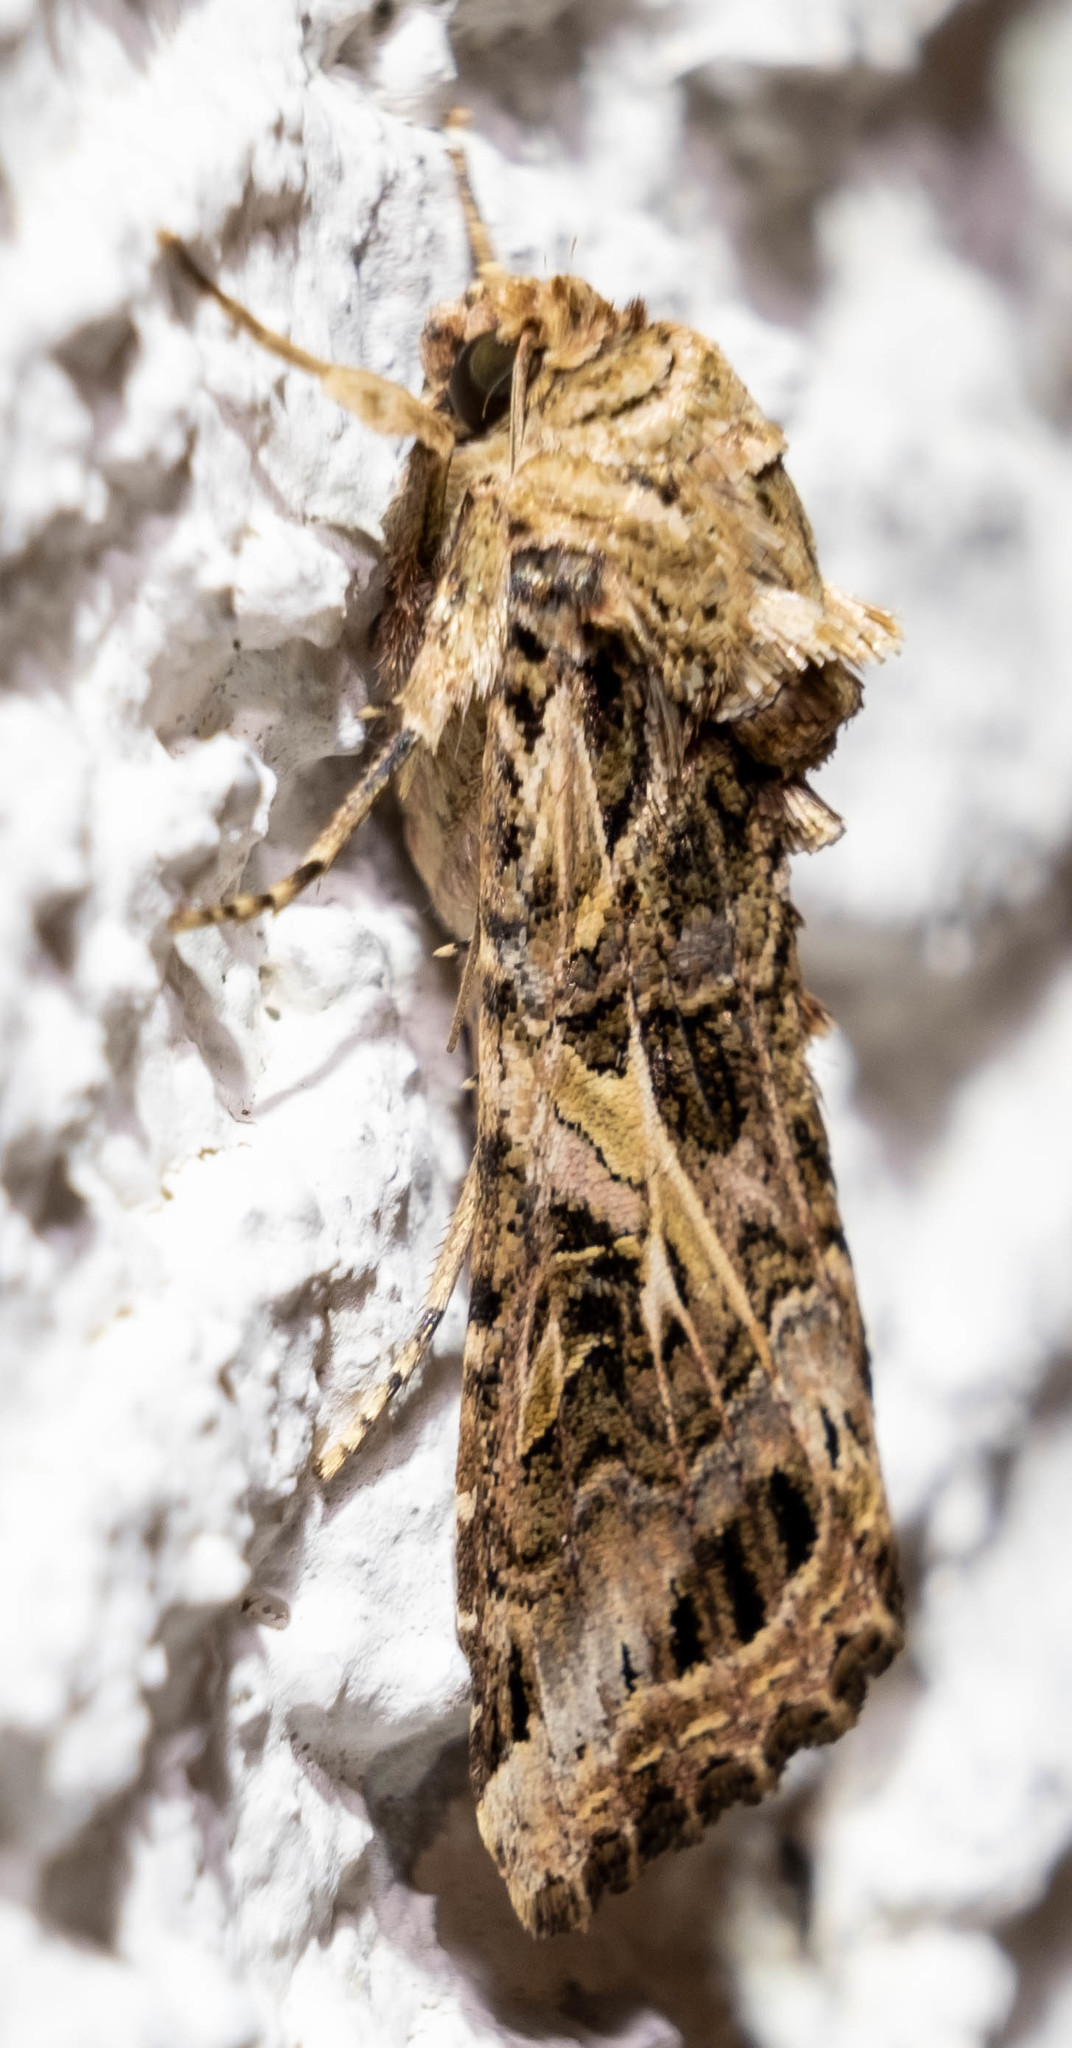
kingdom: Animalia
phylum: Arthropoda
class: Insecta
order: Lepidoptera
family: Noctuidae
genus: Spodoptera
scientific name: Spodoptera ornithogalli
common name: Yellow-striped armyworm
